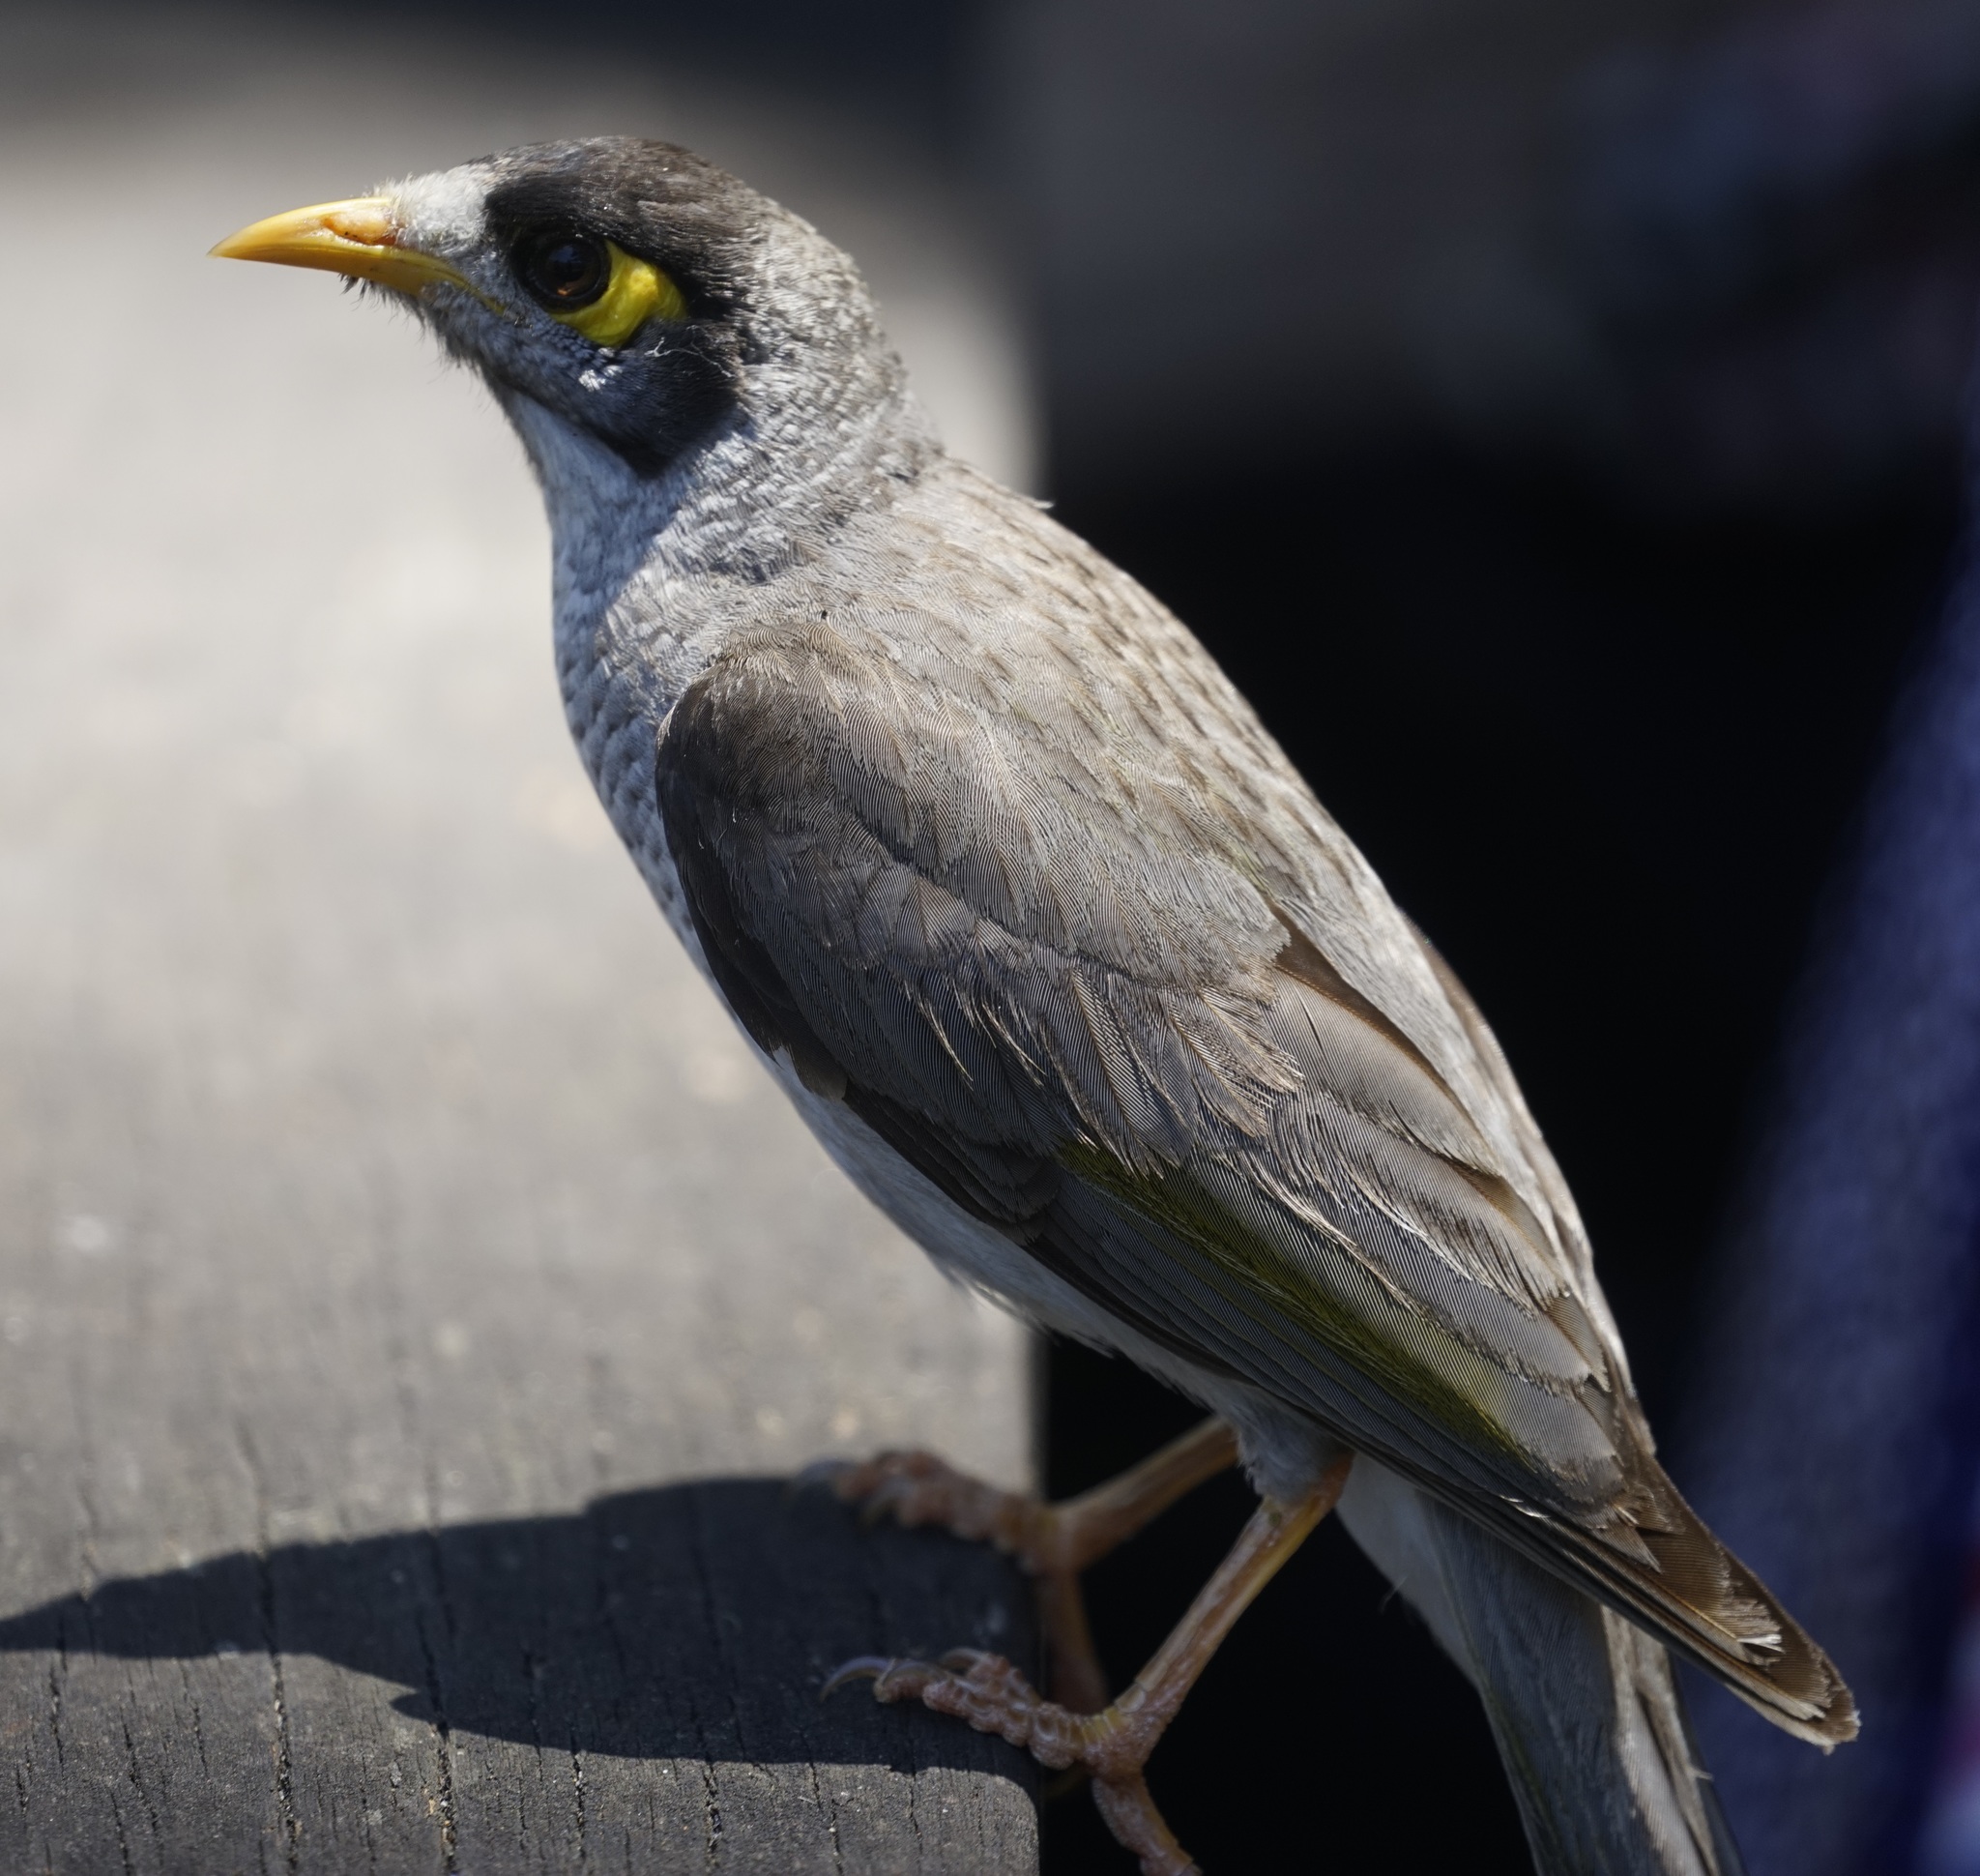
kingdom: Animalia
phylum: Chordata
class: Aves
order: Passeriformes
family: Meliphagidae
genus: Manorina
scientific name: Manorina melanocephala
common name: Noisy miner
